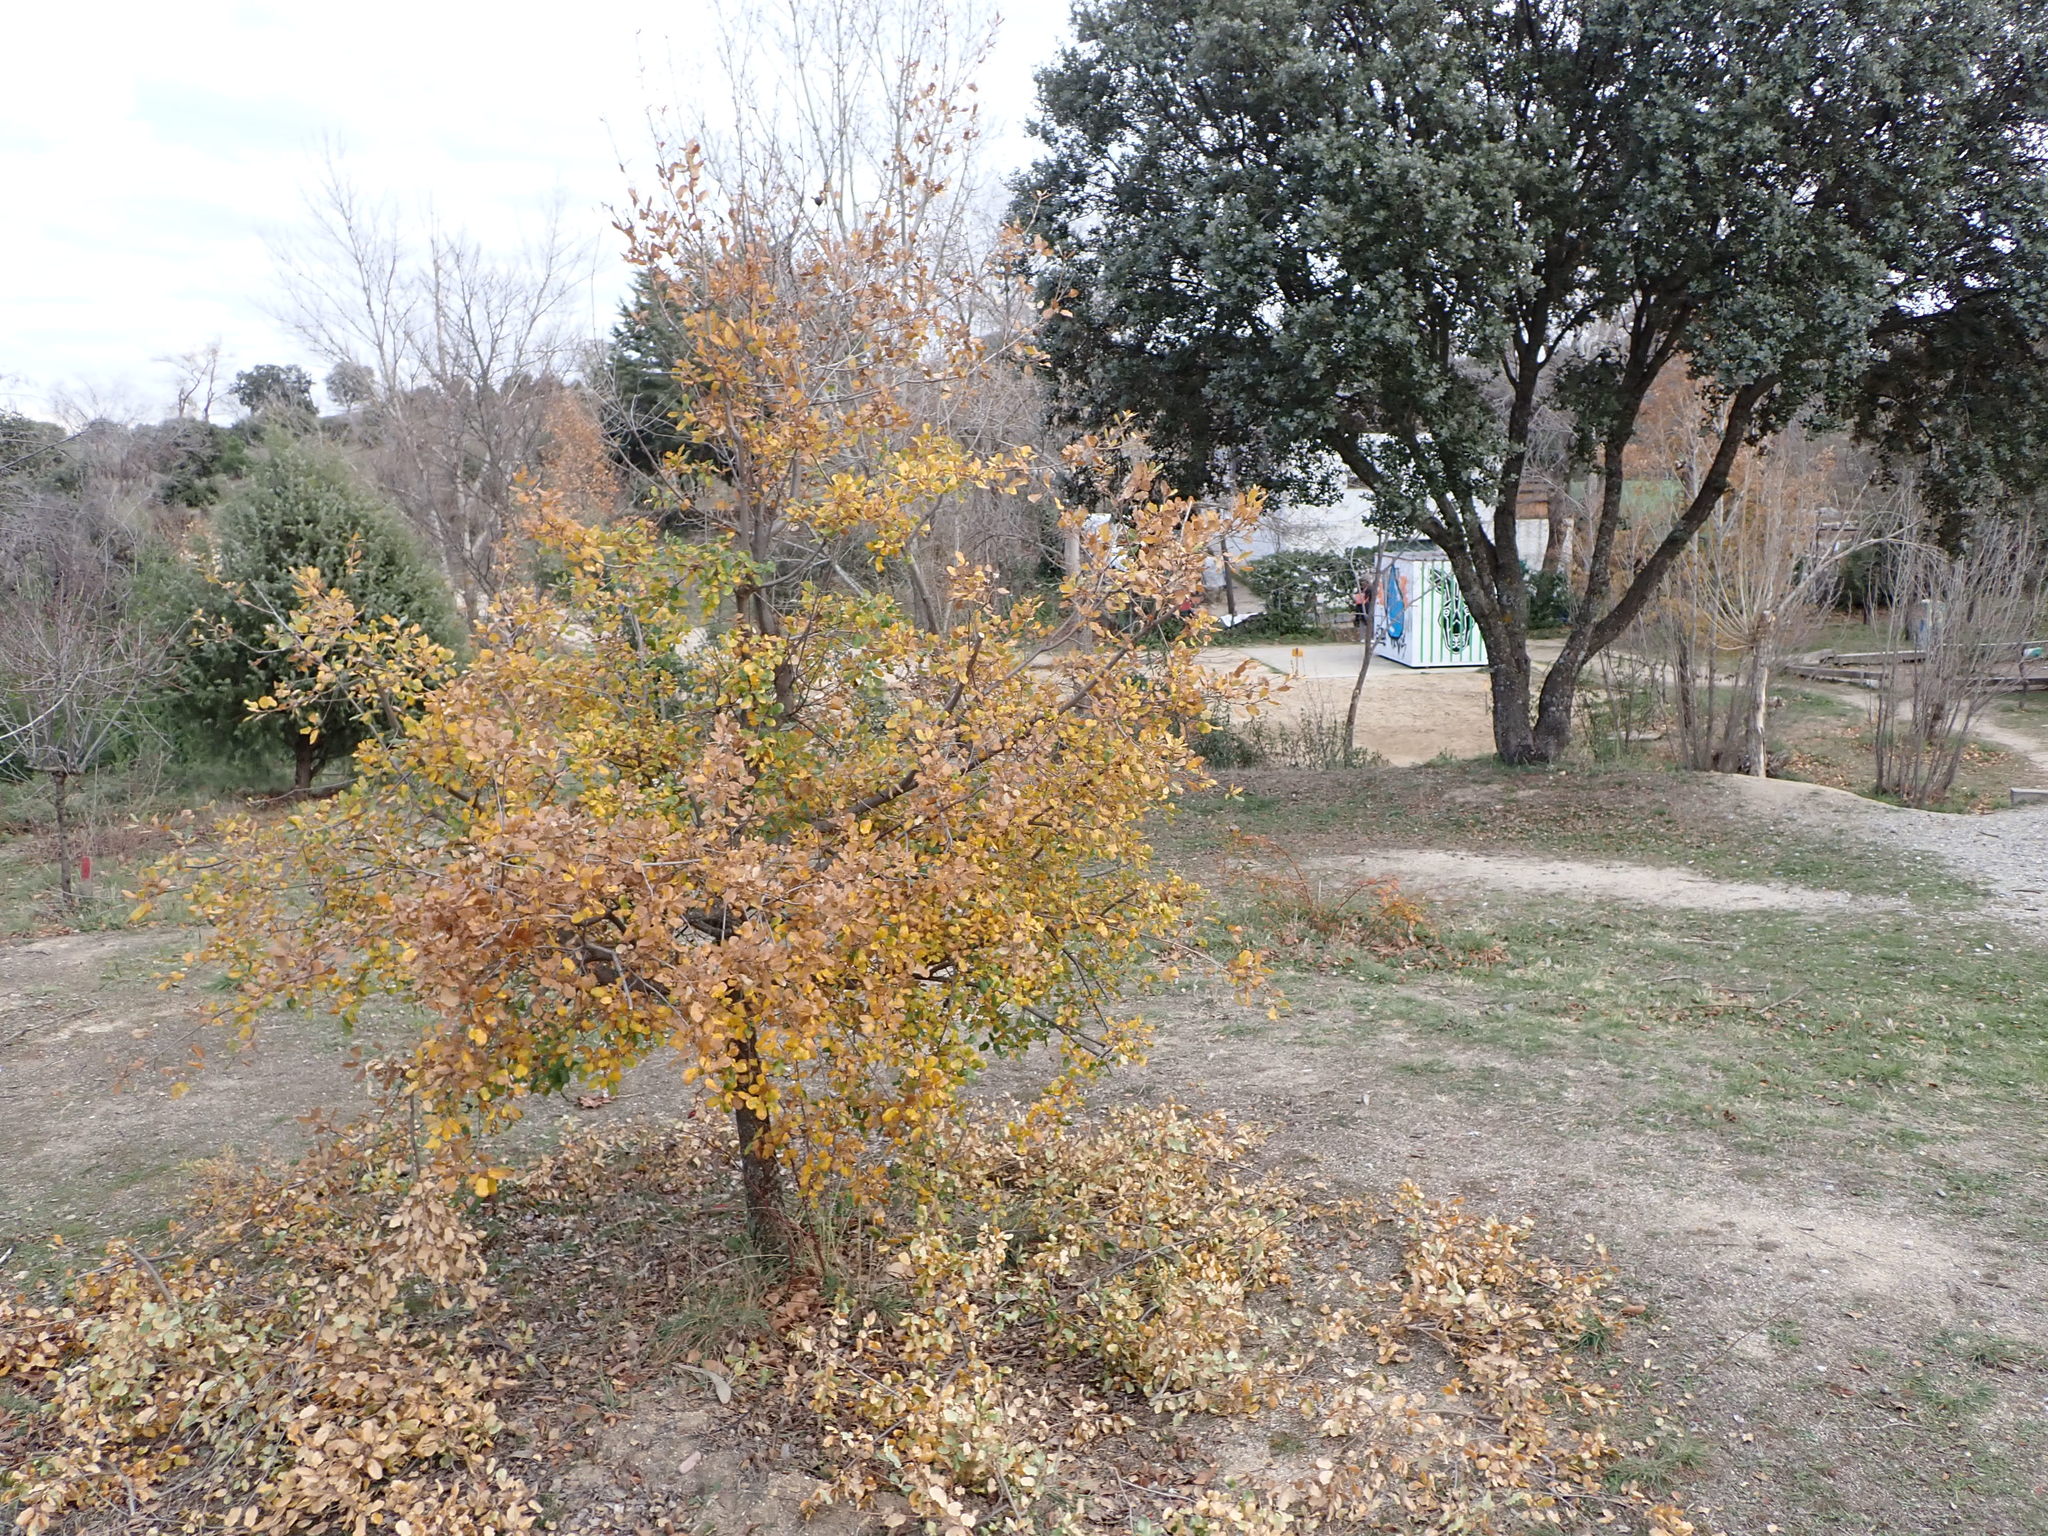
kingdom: Plantae
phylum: Tracheophyta
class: Magnoliopsida
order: Fagales
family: Fagaceae
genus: Quercus
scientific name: Quercus faginea
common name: Gall oak tree
